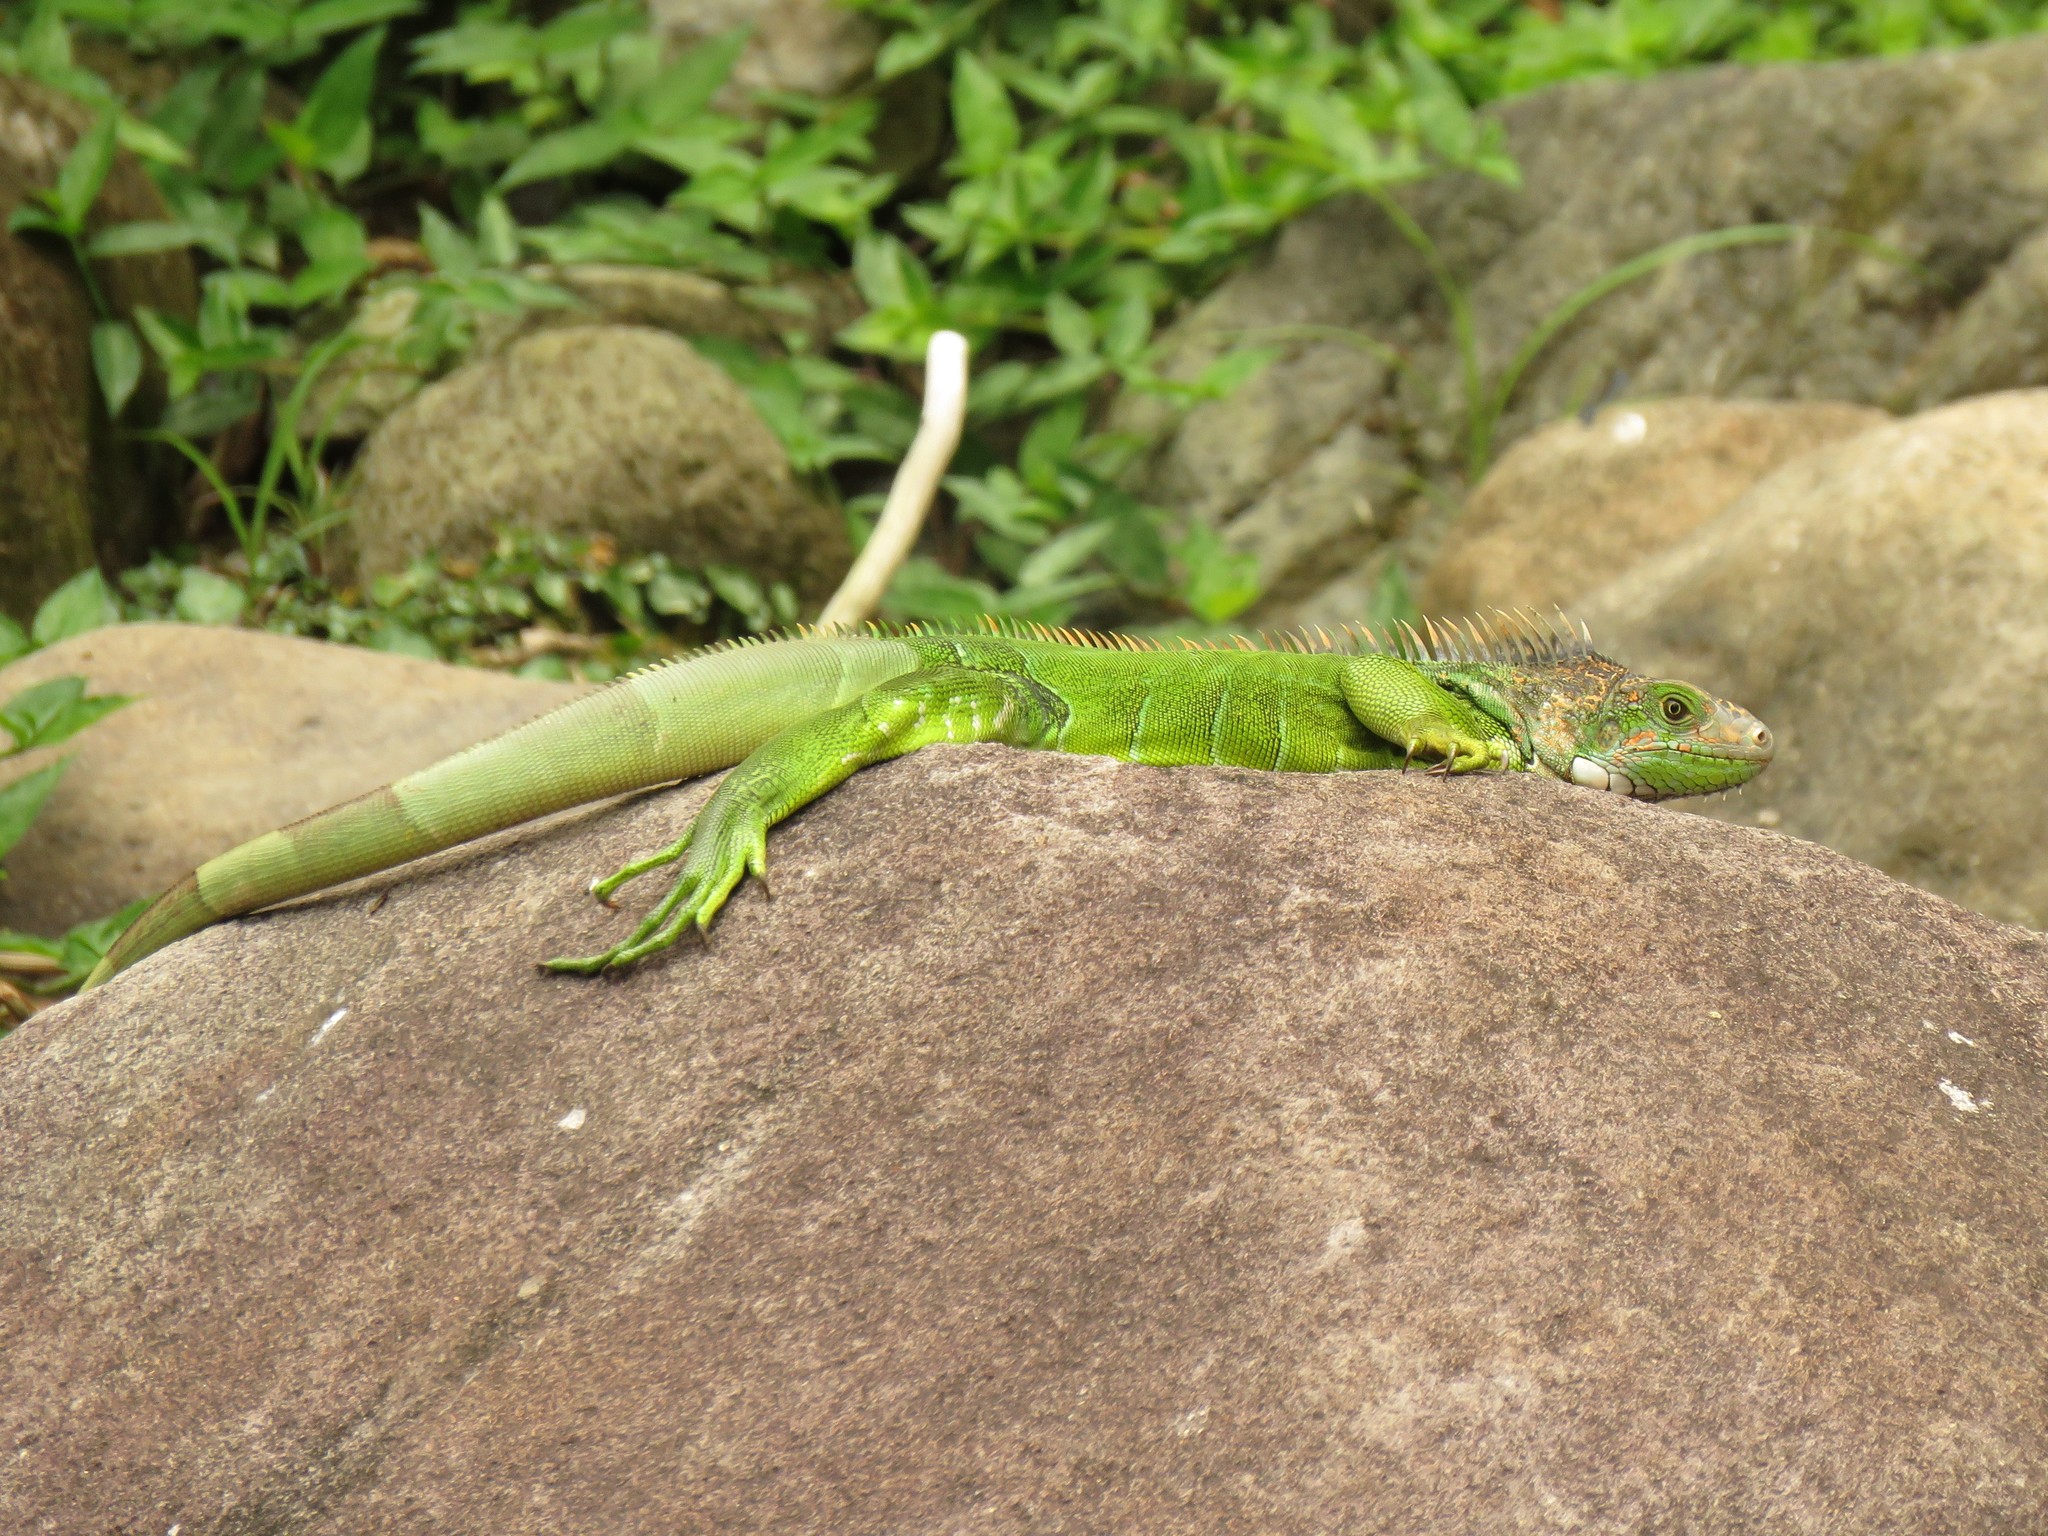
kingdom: Animalia
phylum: Chordata
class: Squamata
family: Iguanidae
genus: Iguana
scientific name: Iguana iguana
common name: Green iguana
